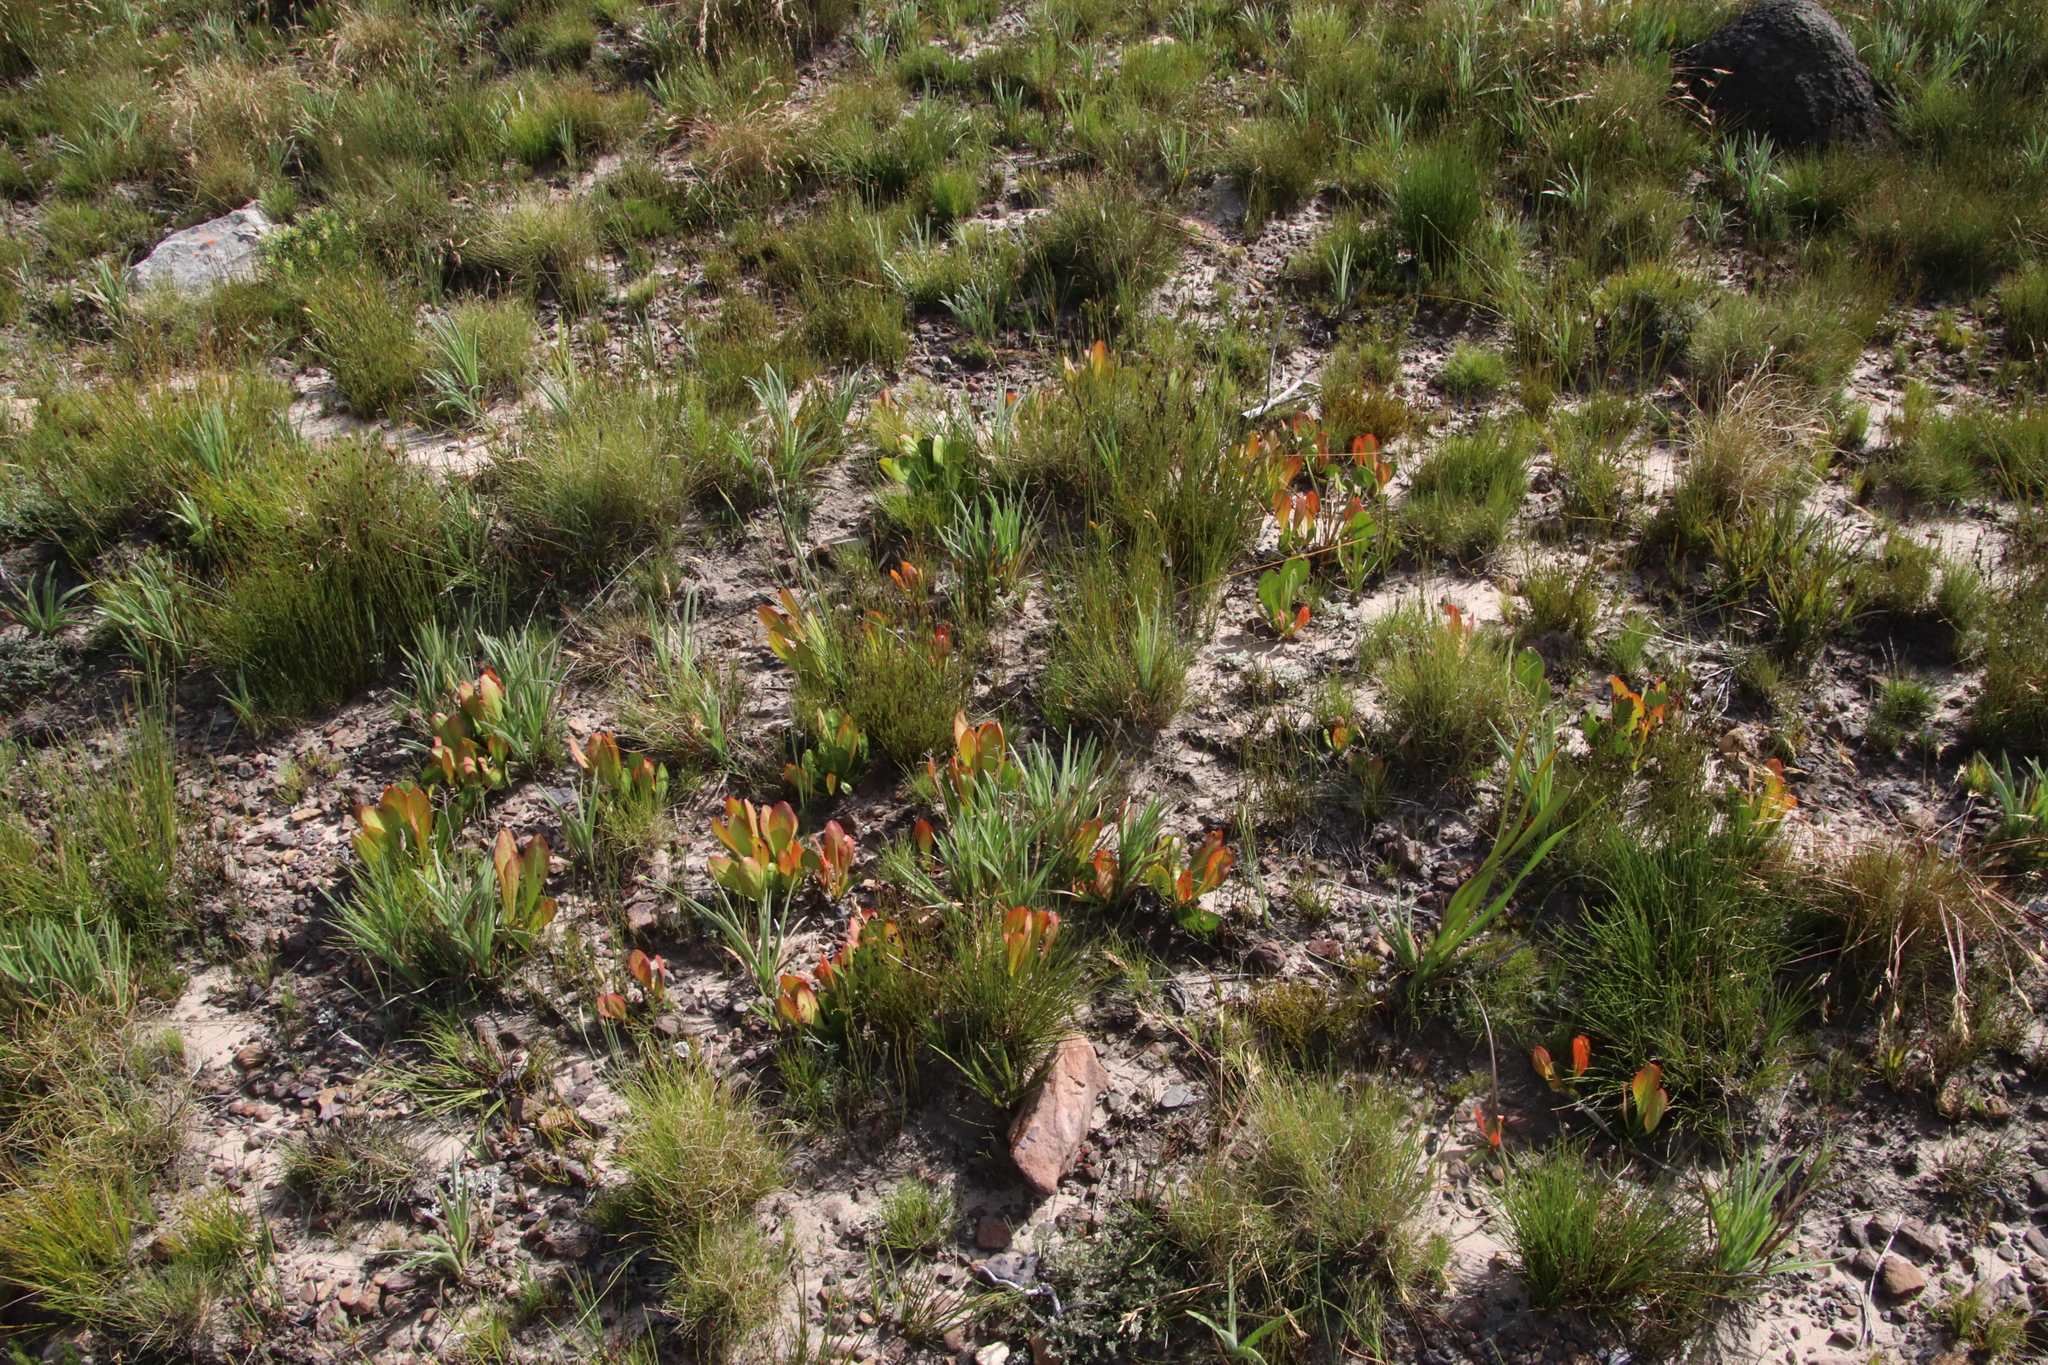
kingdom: Plantae
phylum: Tracheophyta
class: Magnoliopsida
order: Proteales
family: Proteaceae
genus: Protea
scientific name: Protea acaulos
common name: Common ground sugarbush
